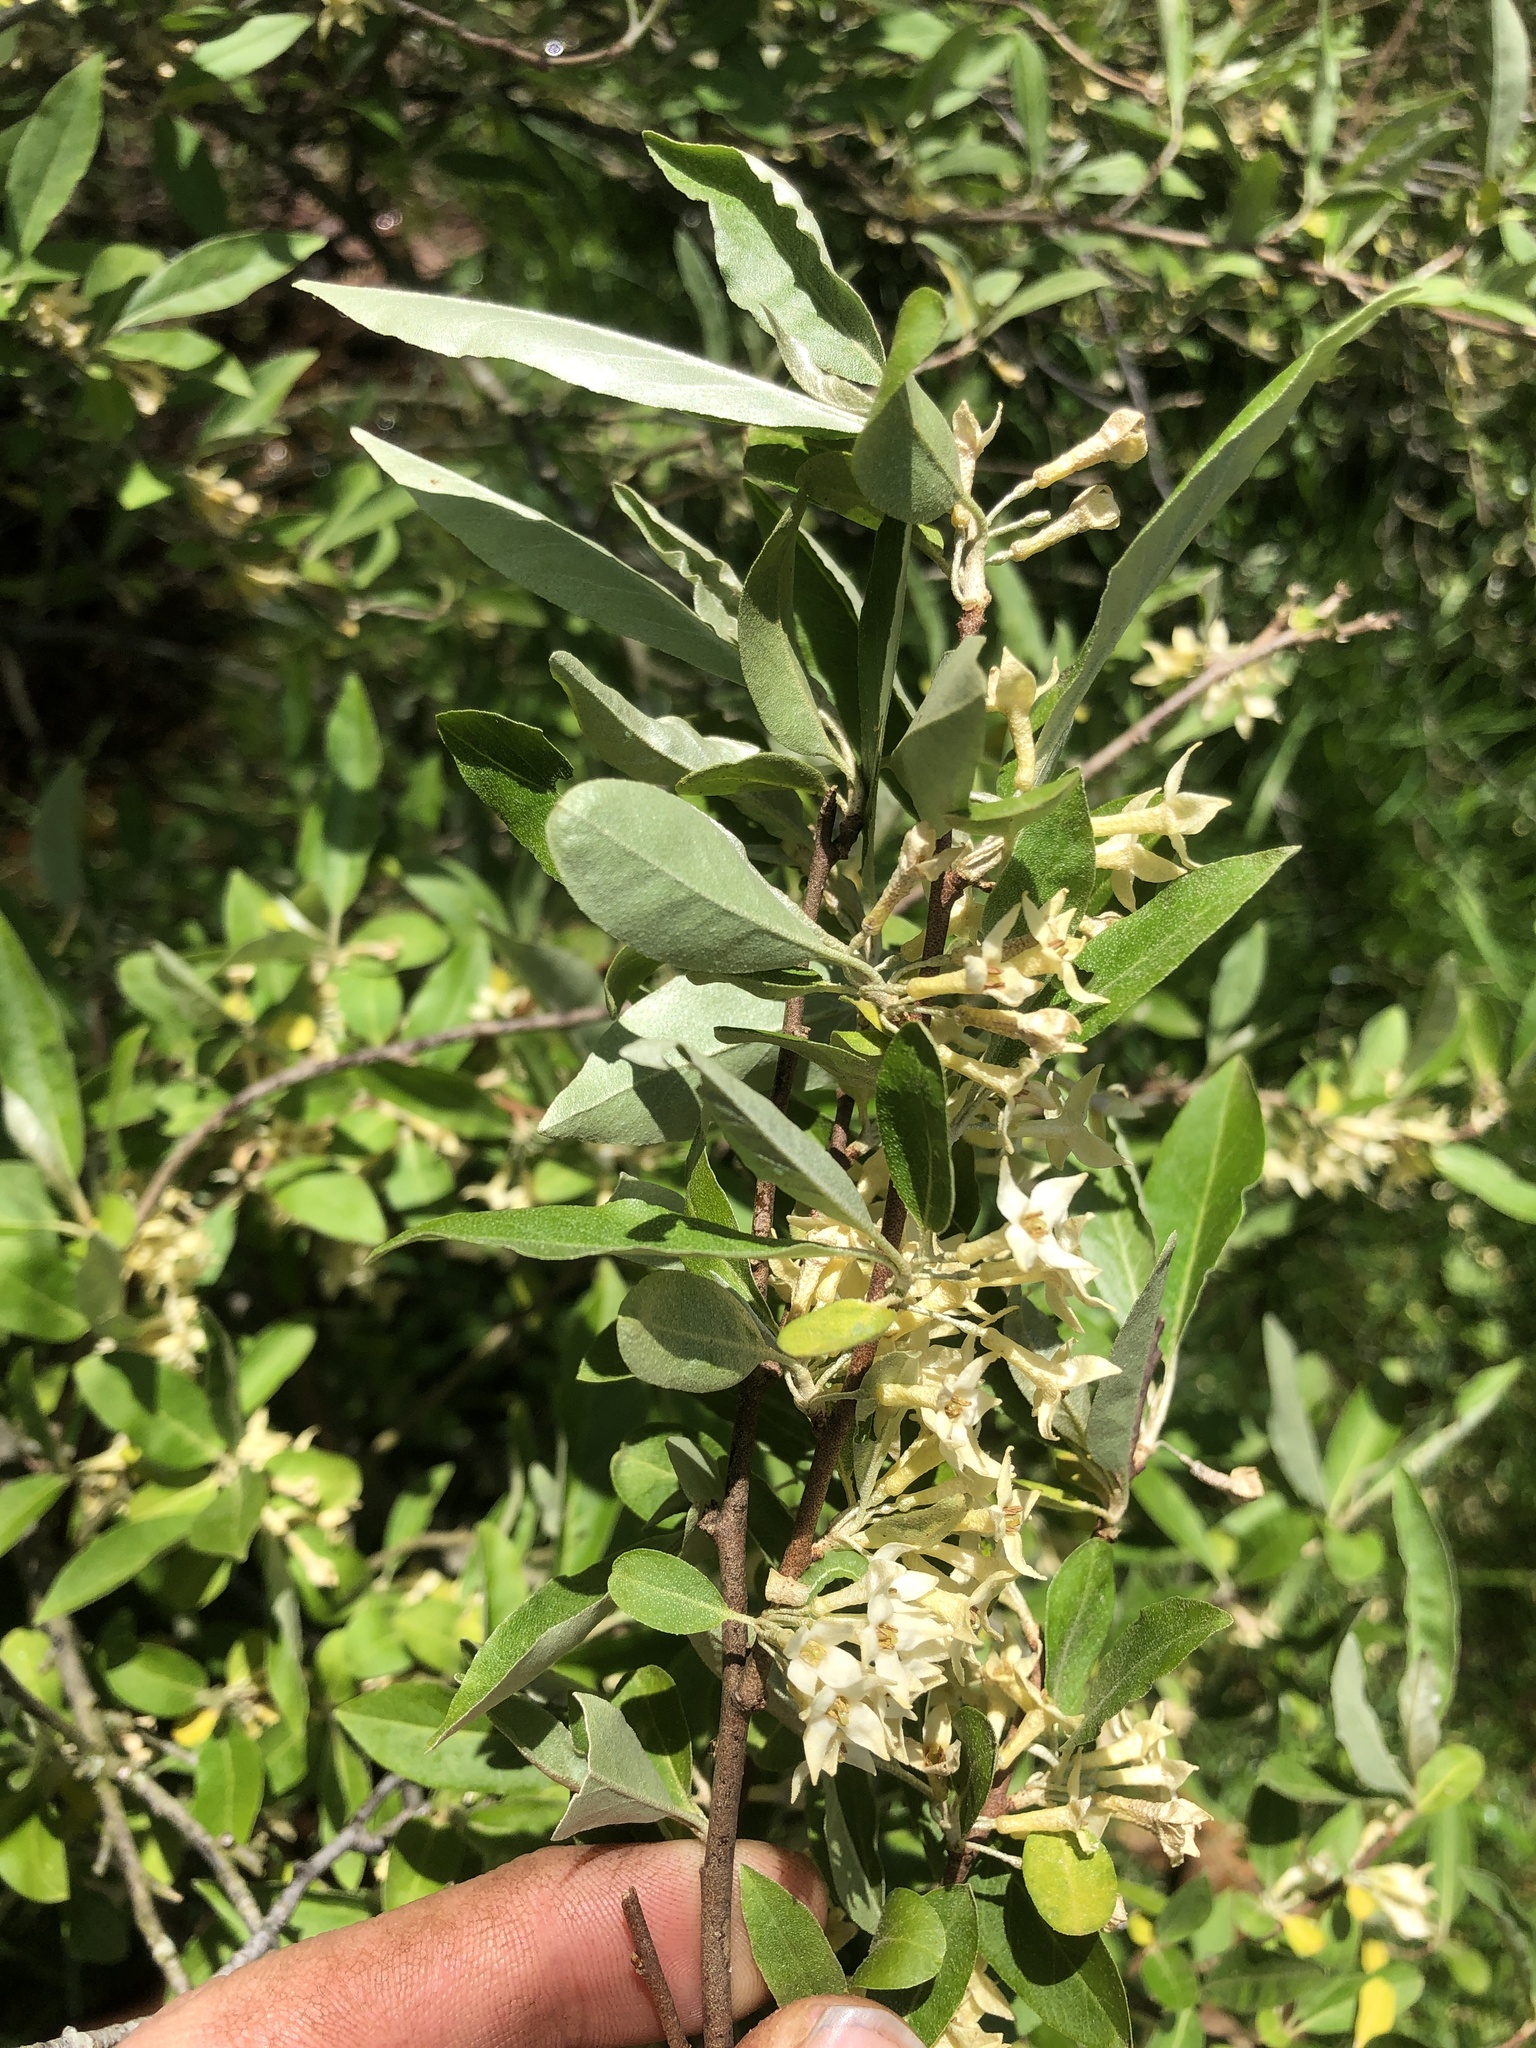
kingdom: Plantae
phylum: Tracheophyta
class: Magnoliopsida
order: Rosales
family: Elaeagnaceae
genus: Elaeagnus
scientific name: Elaeagnus umbellata
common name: Autumn olive
